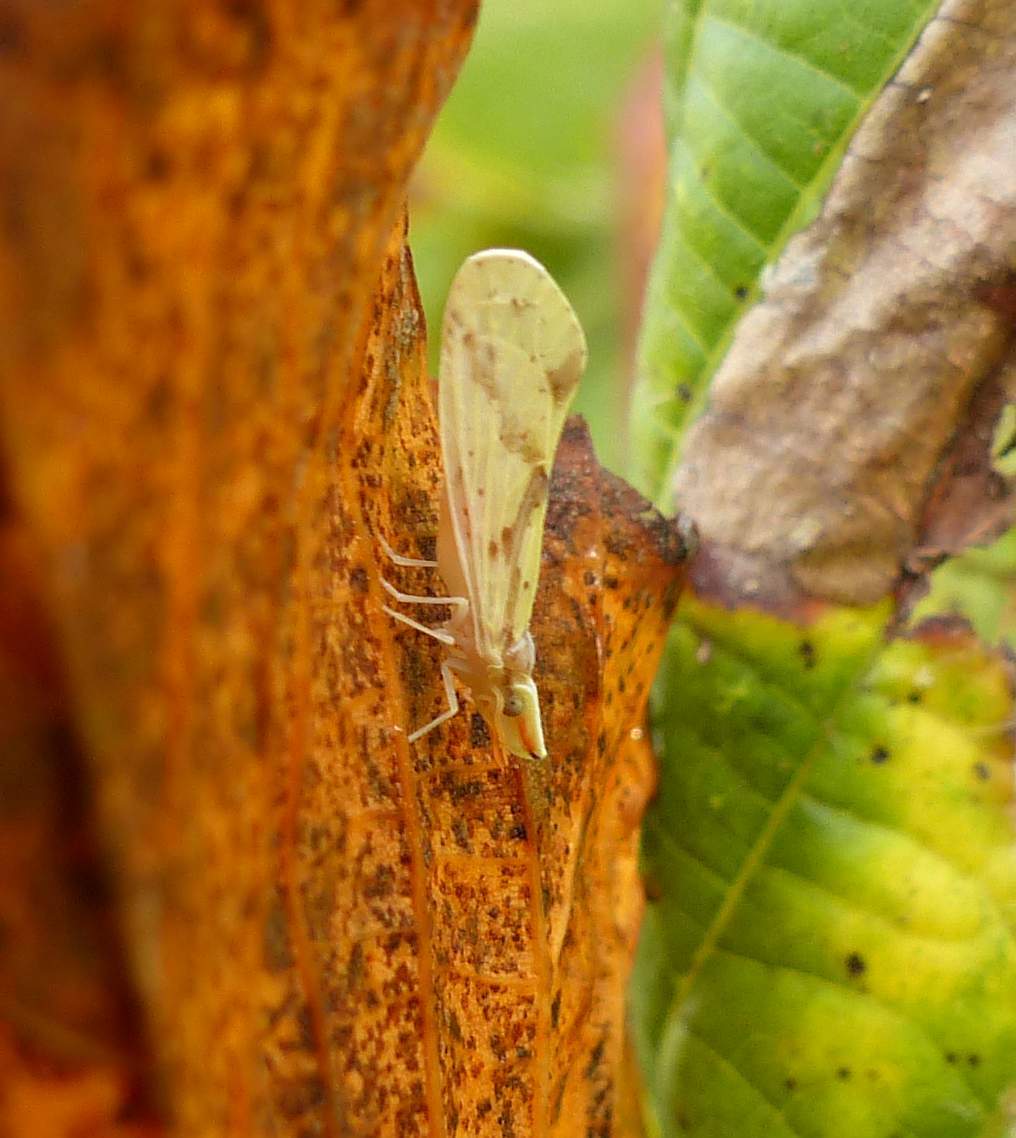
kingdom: Animalia
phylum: Arthropoda
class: Insecta
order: Hemiptera
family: Derbidae
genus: Otiocerus
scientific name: Otiocerus wolfii
